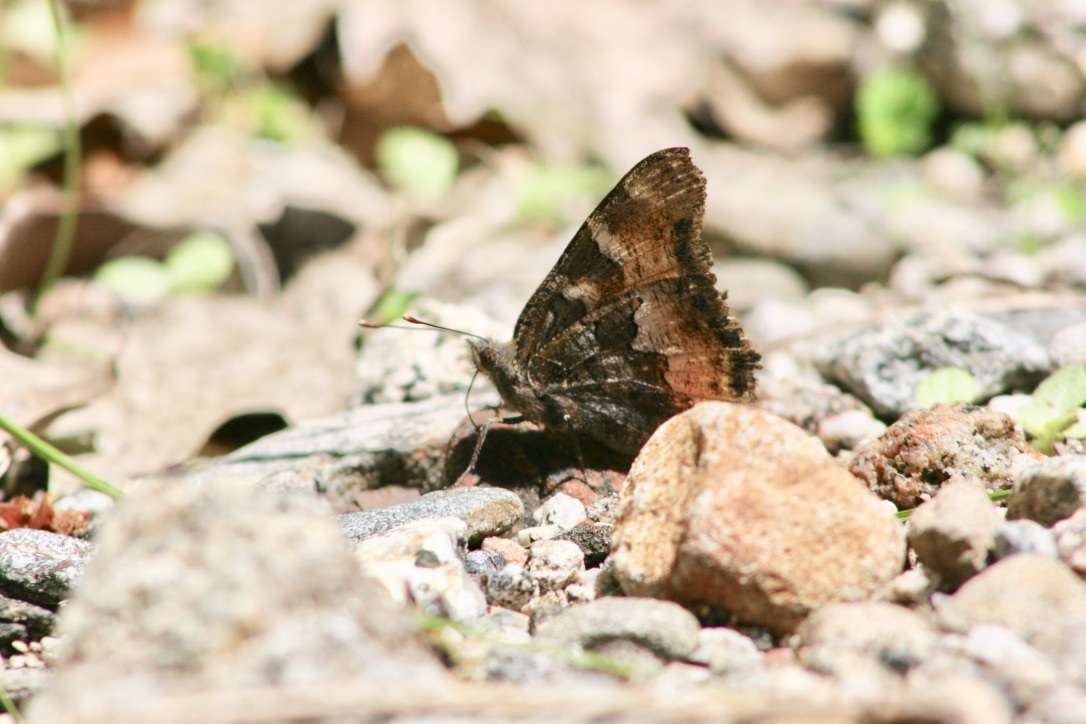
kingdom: Animalia
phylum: Arthropoda
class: Insecta
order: Lepidoptera
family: Nymphalidae
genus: Nymphalis
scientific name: Nymphalis californica
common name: California tortoiseshell
